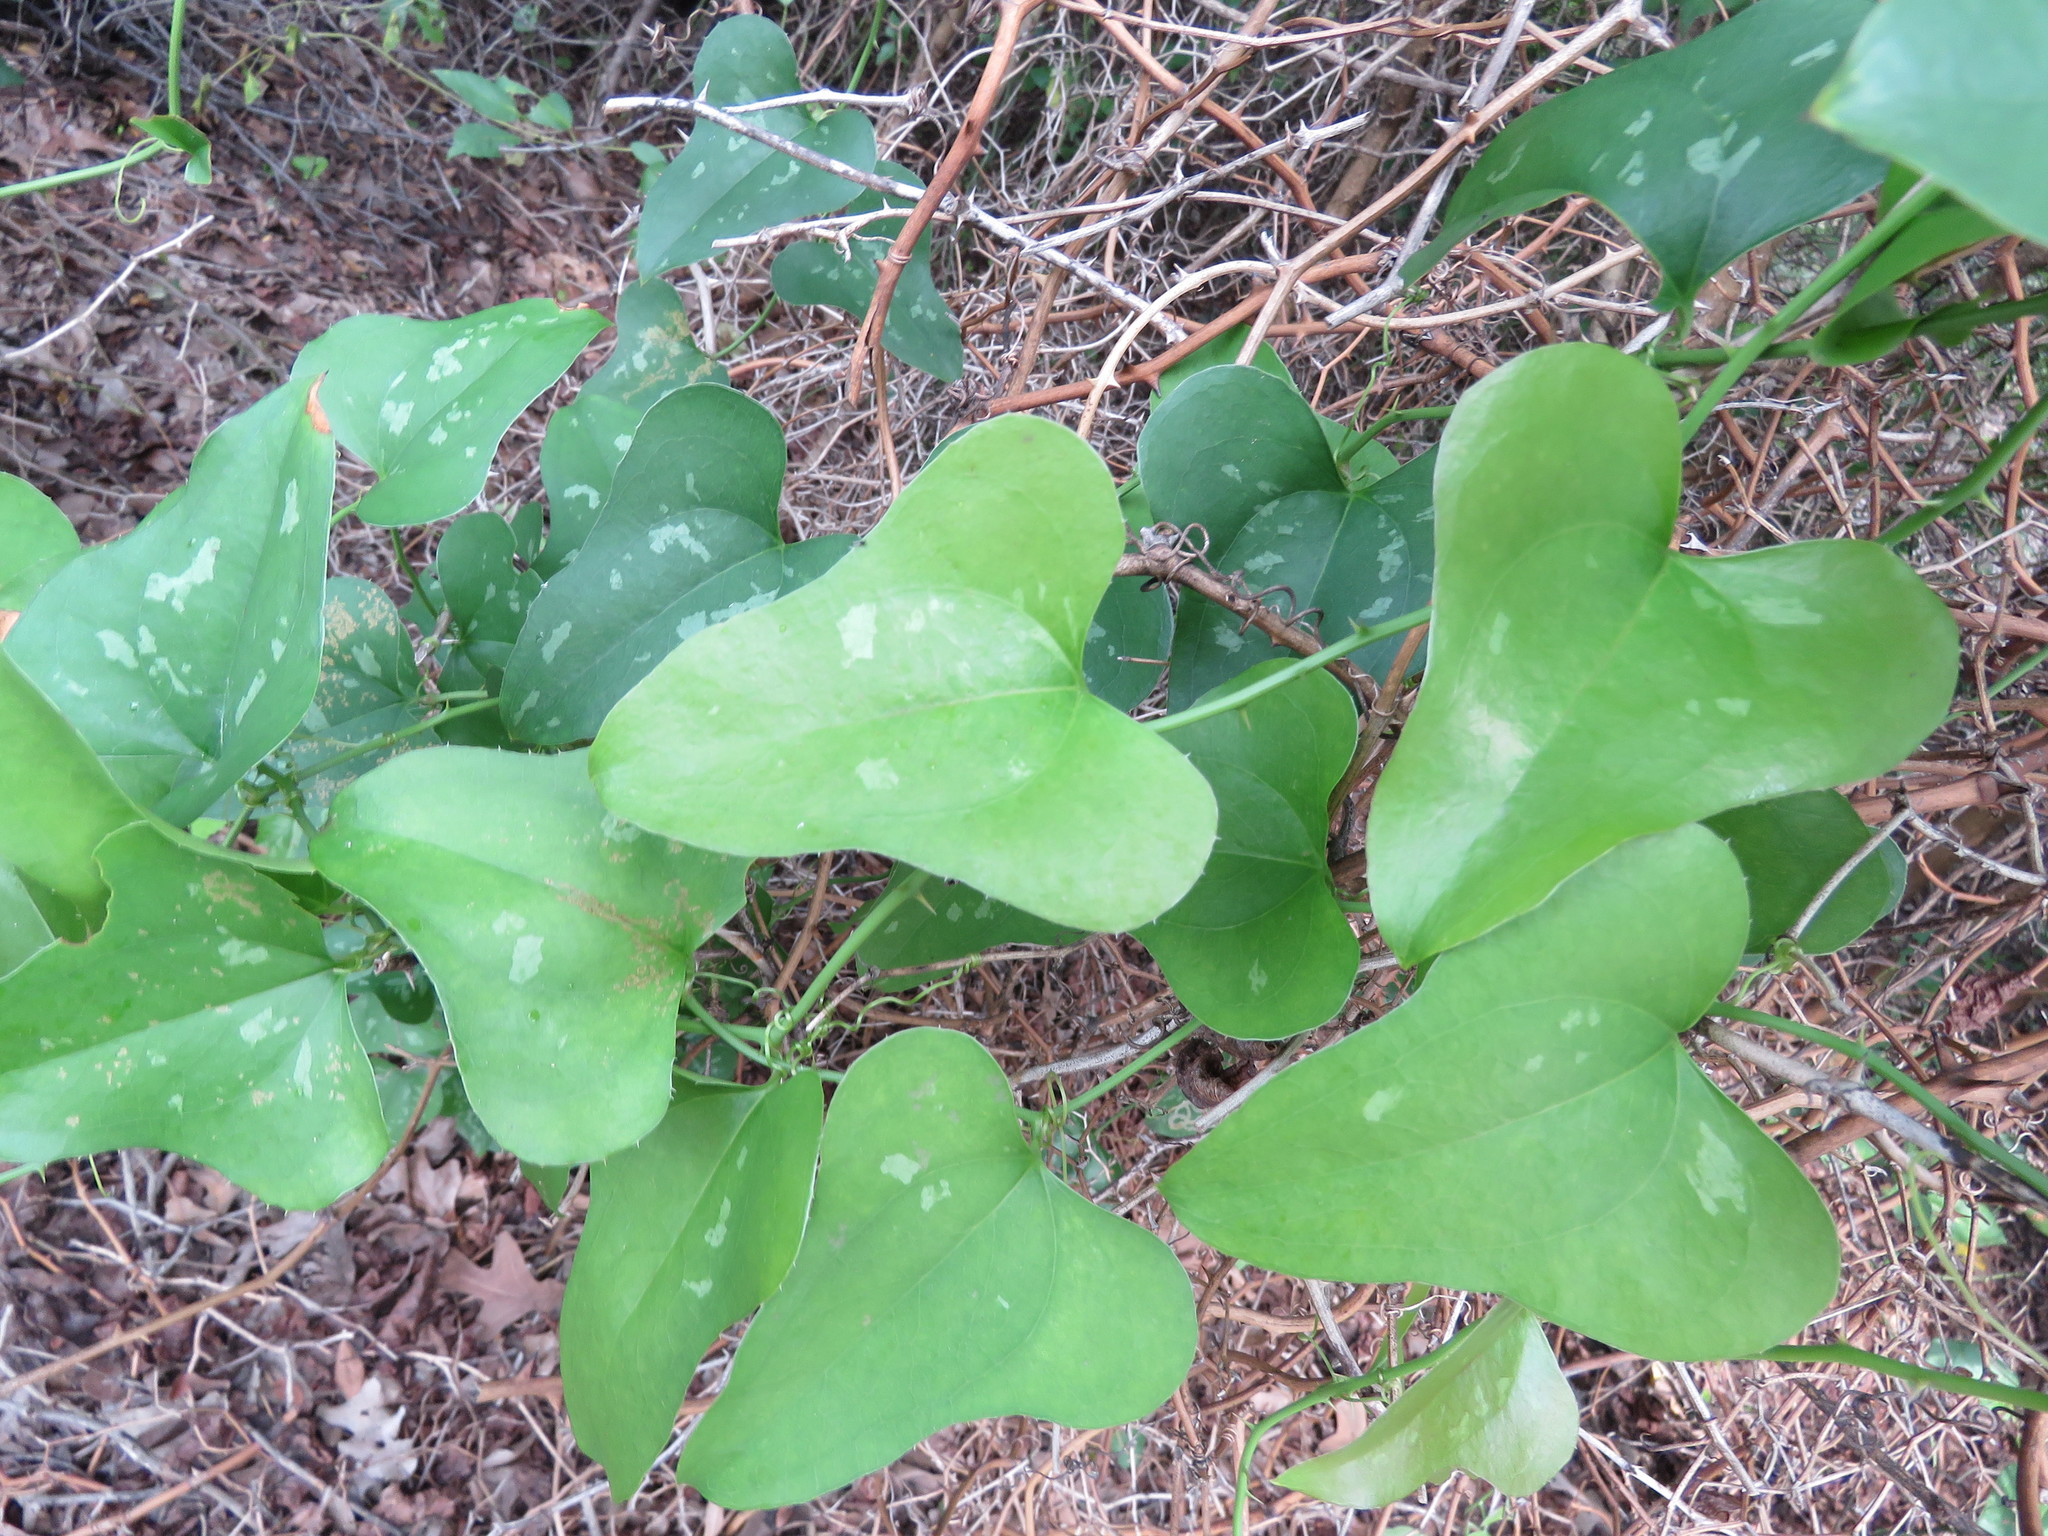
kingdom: Plantae
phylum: Tracheophyta
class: Liliopsida
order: Liliales
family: Smilacaceae
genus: Smilax
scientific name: Smilax bona-nox
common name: Catbrier
